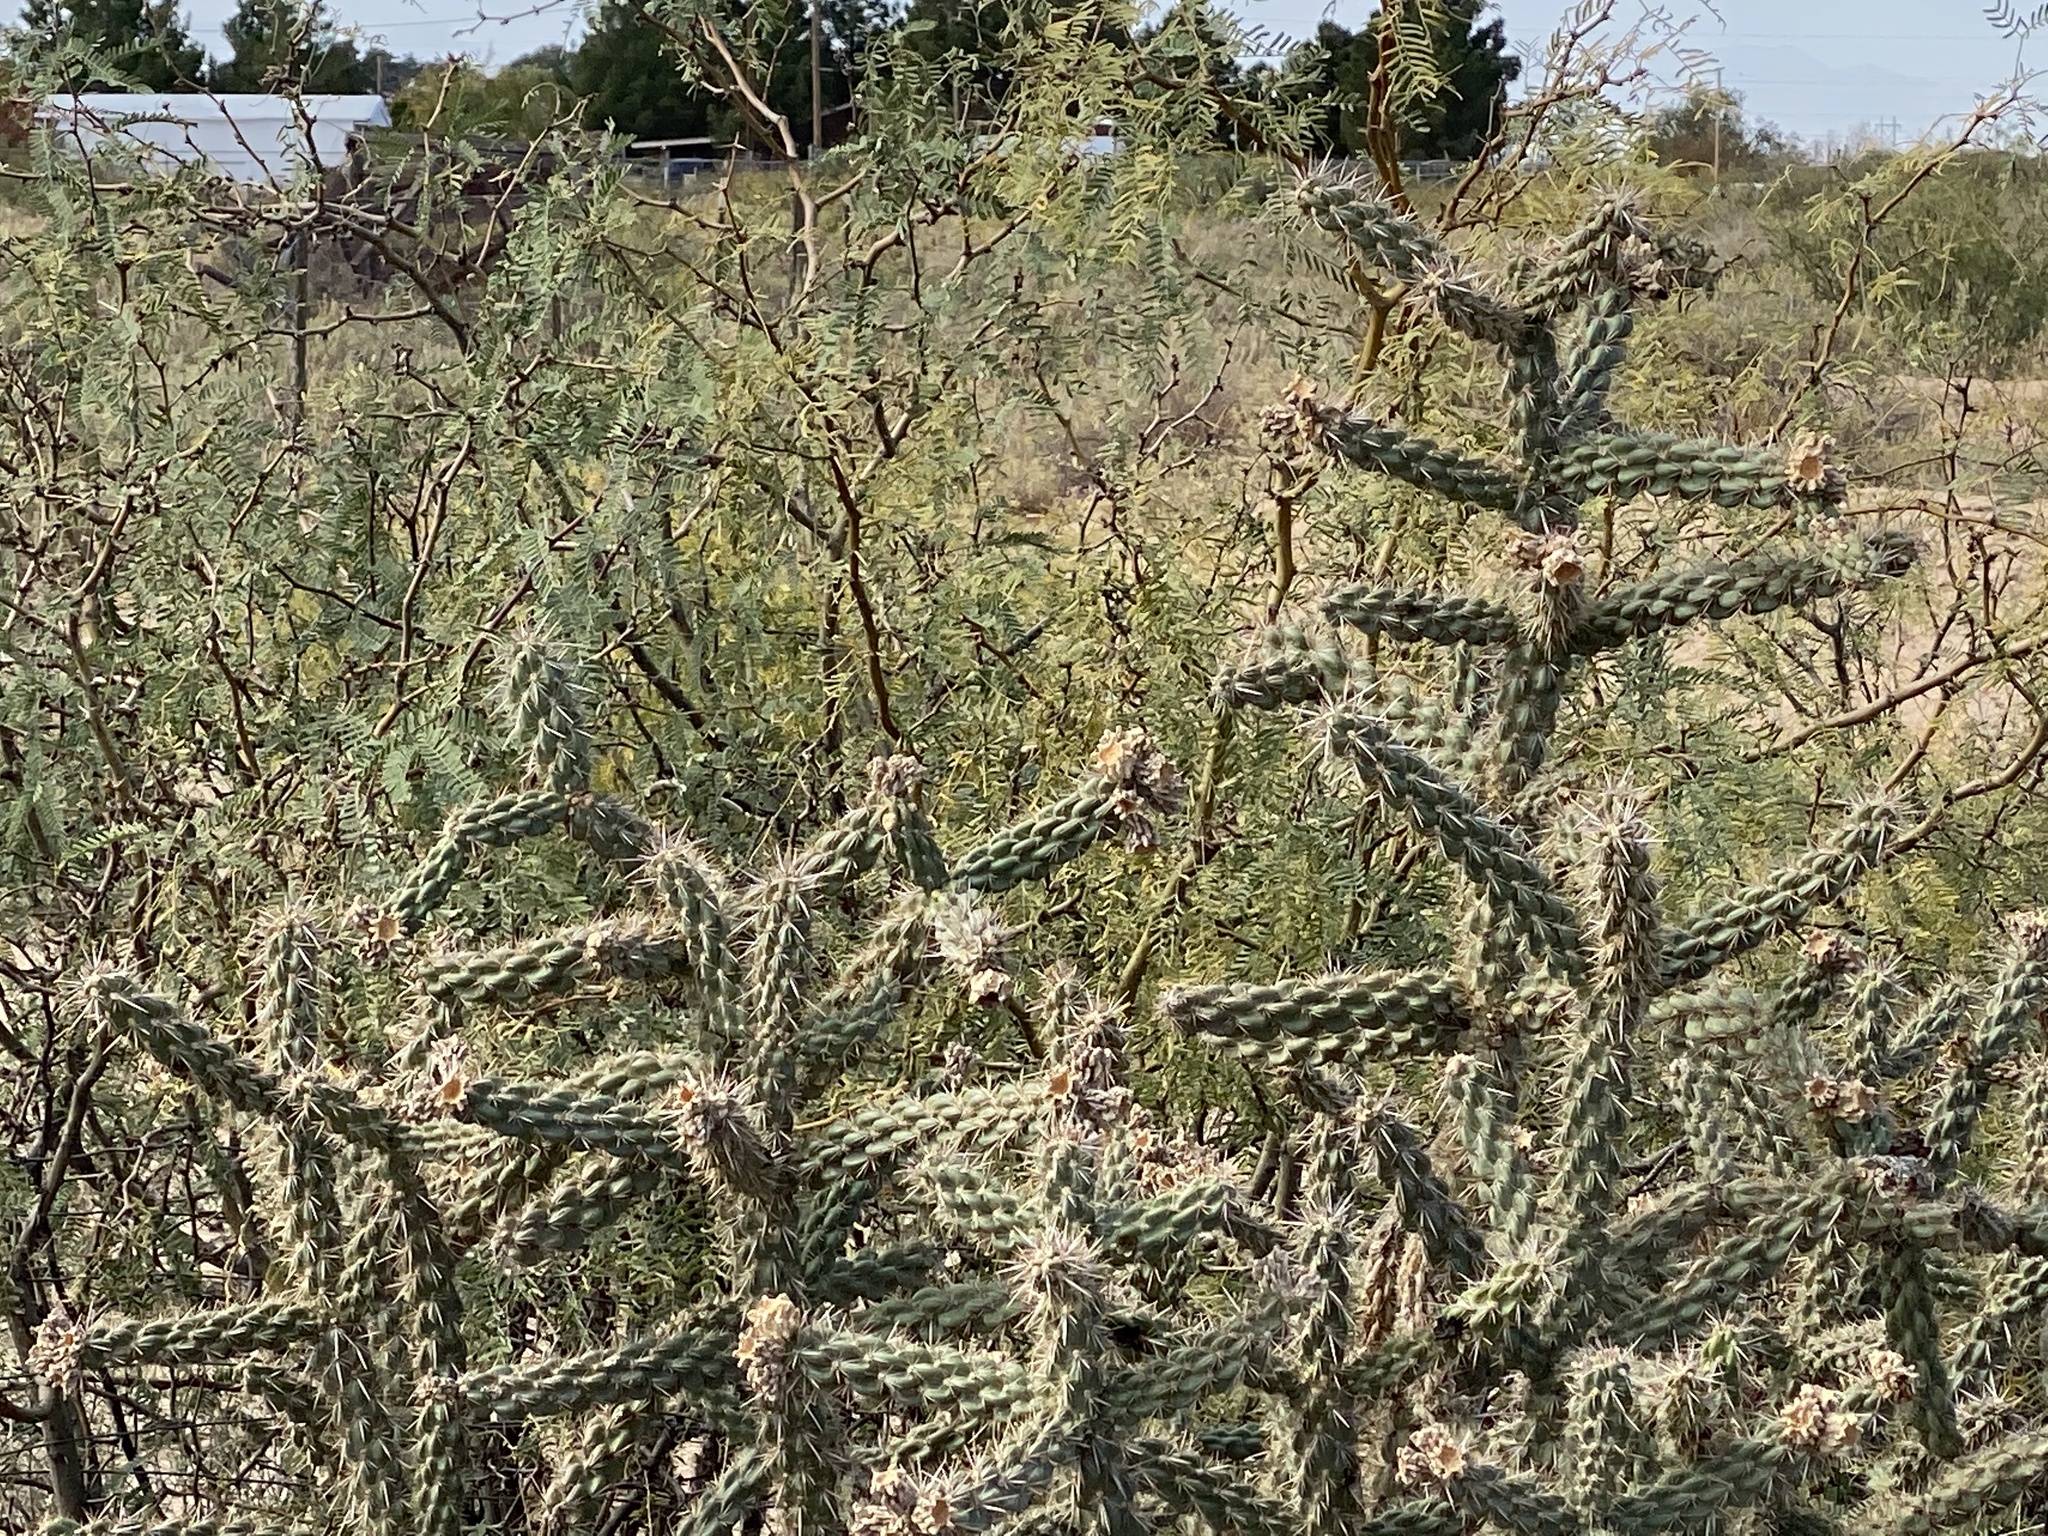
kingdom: Plantae
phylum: Tracheophyta
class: Magnoliopsida
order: Caryophyllales
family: Cactaceae
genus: Cylindropuntia
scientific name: Cylindropuntia imbricata
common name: Candelabrum cactus
